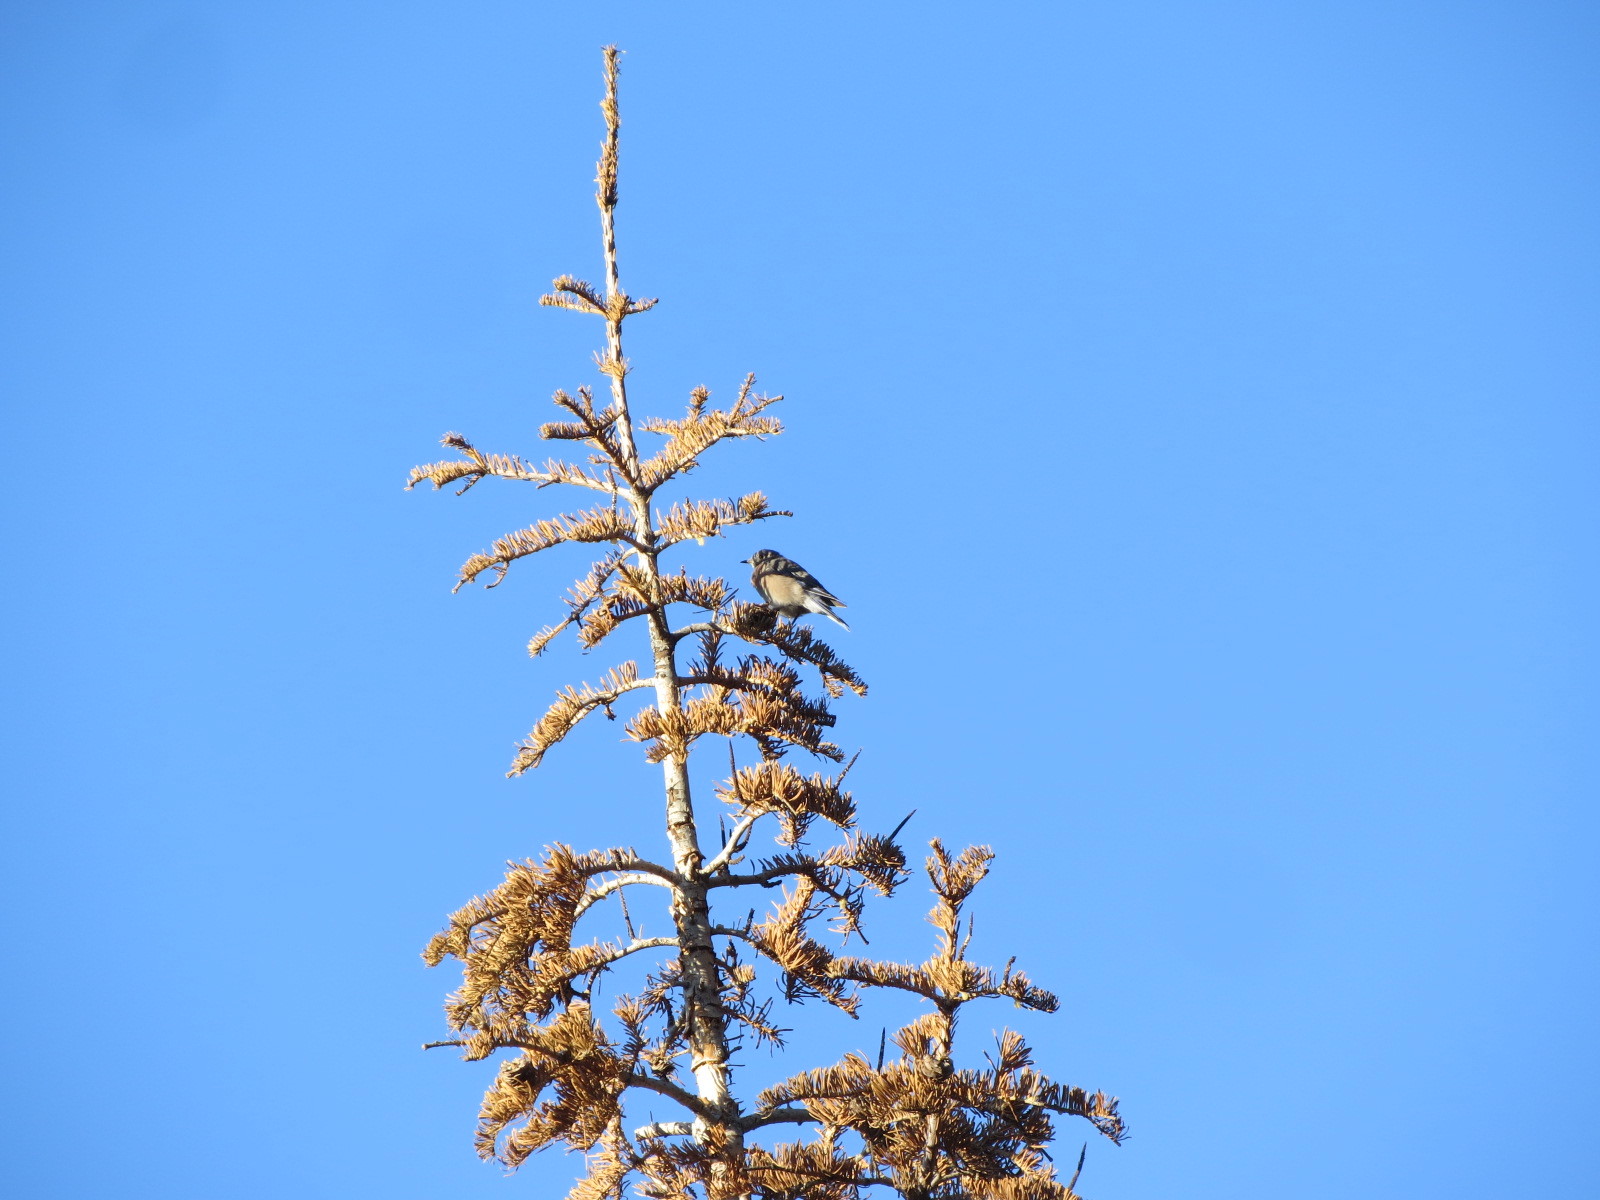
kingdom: Animalia
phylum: Chordata
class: Aves
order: Passeriformes
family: Turdidae
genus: Sialia
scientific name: Sialia mexicana
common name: Western bluebird
